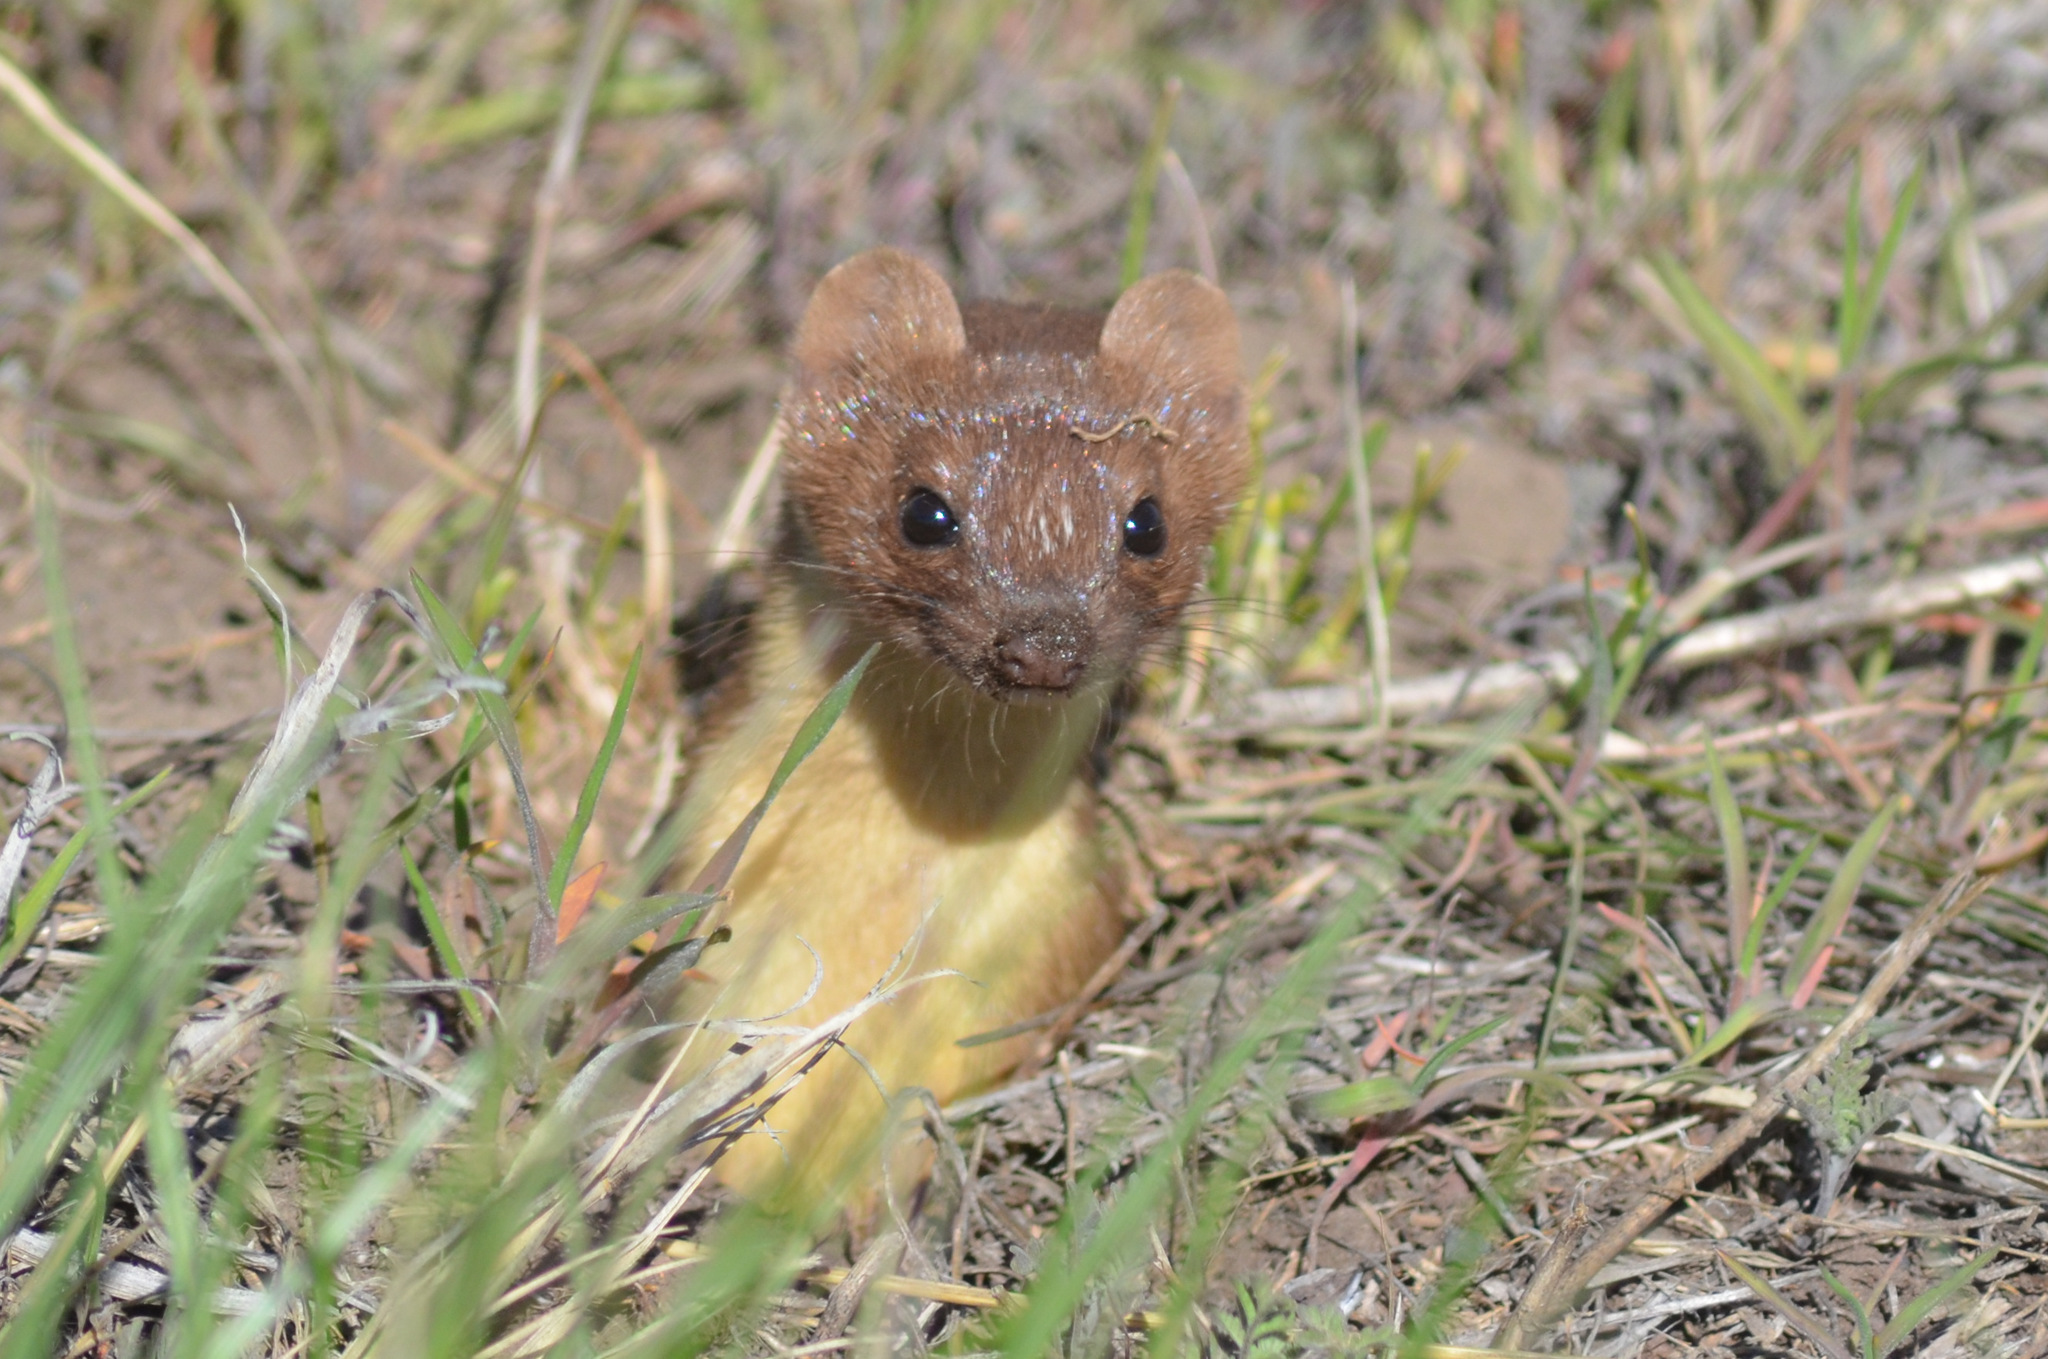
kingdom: Animalia
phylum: Chordata
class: Mammalia
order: Carnivora
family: Mustelidae
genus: Mustela
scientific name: Mustela
